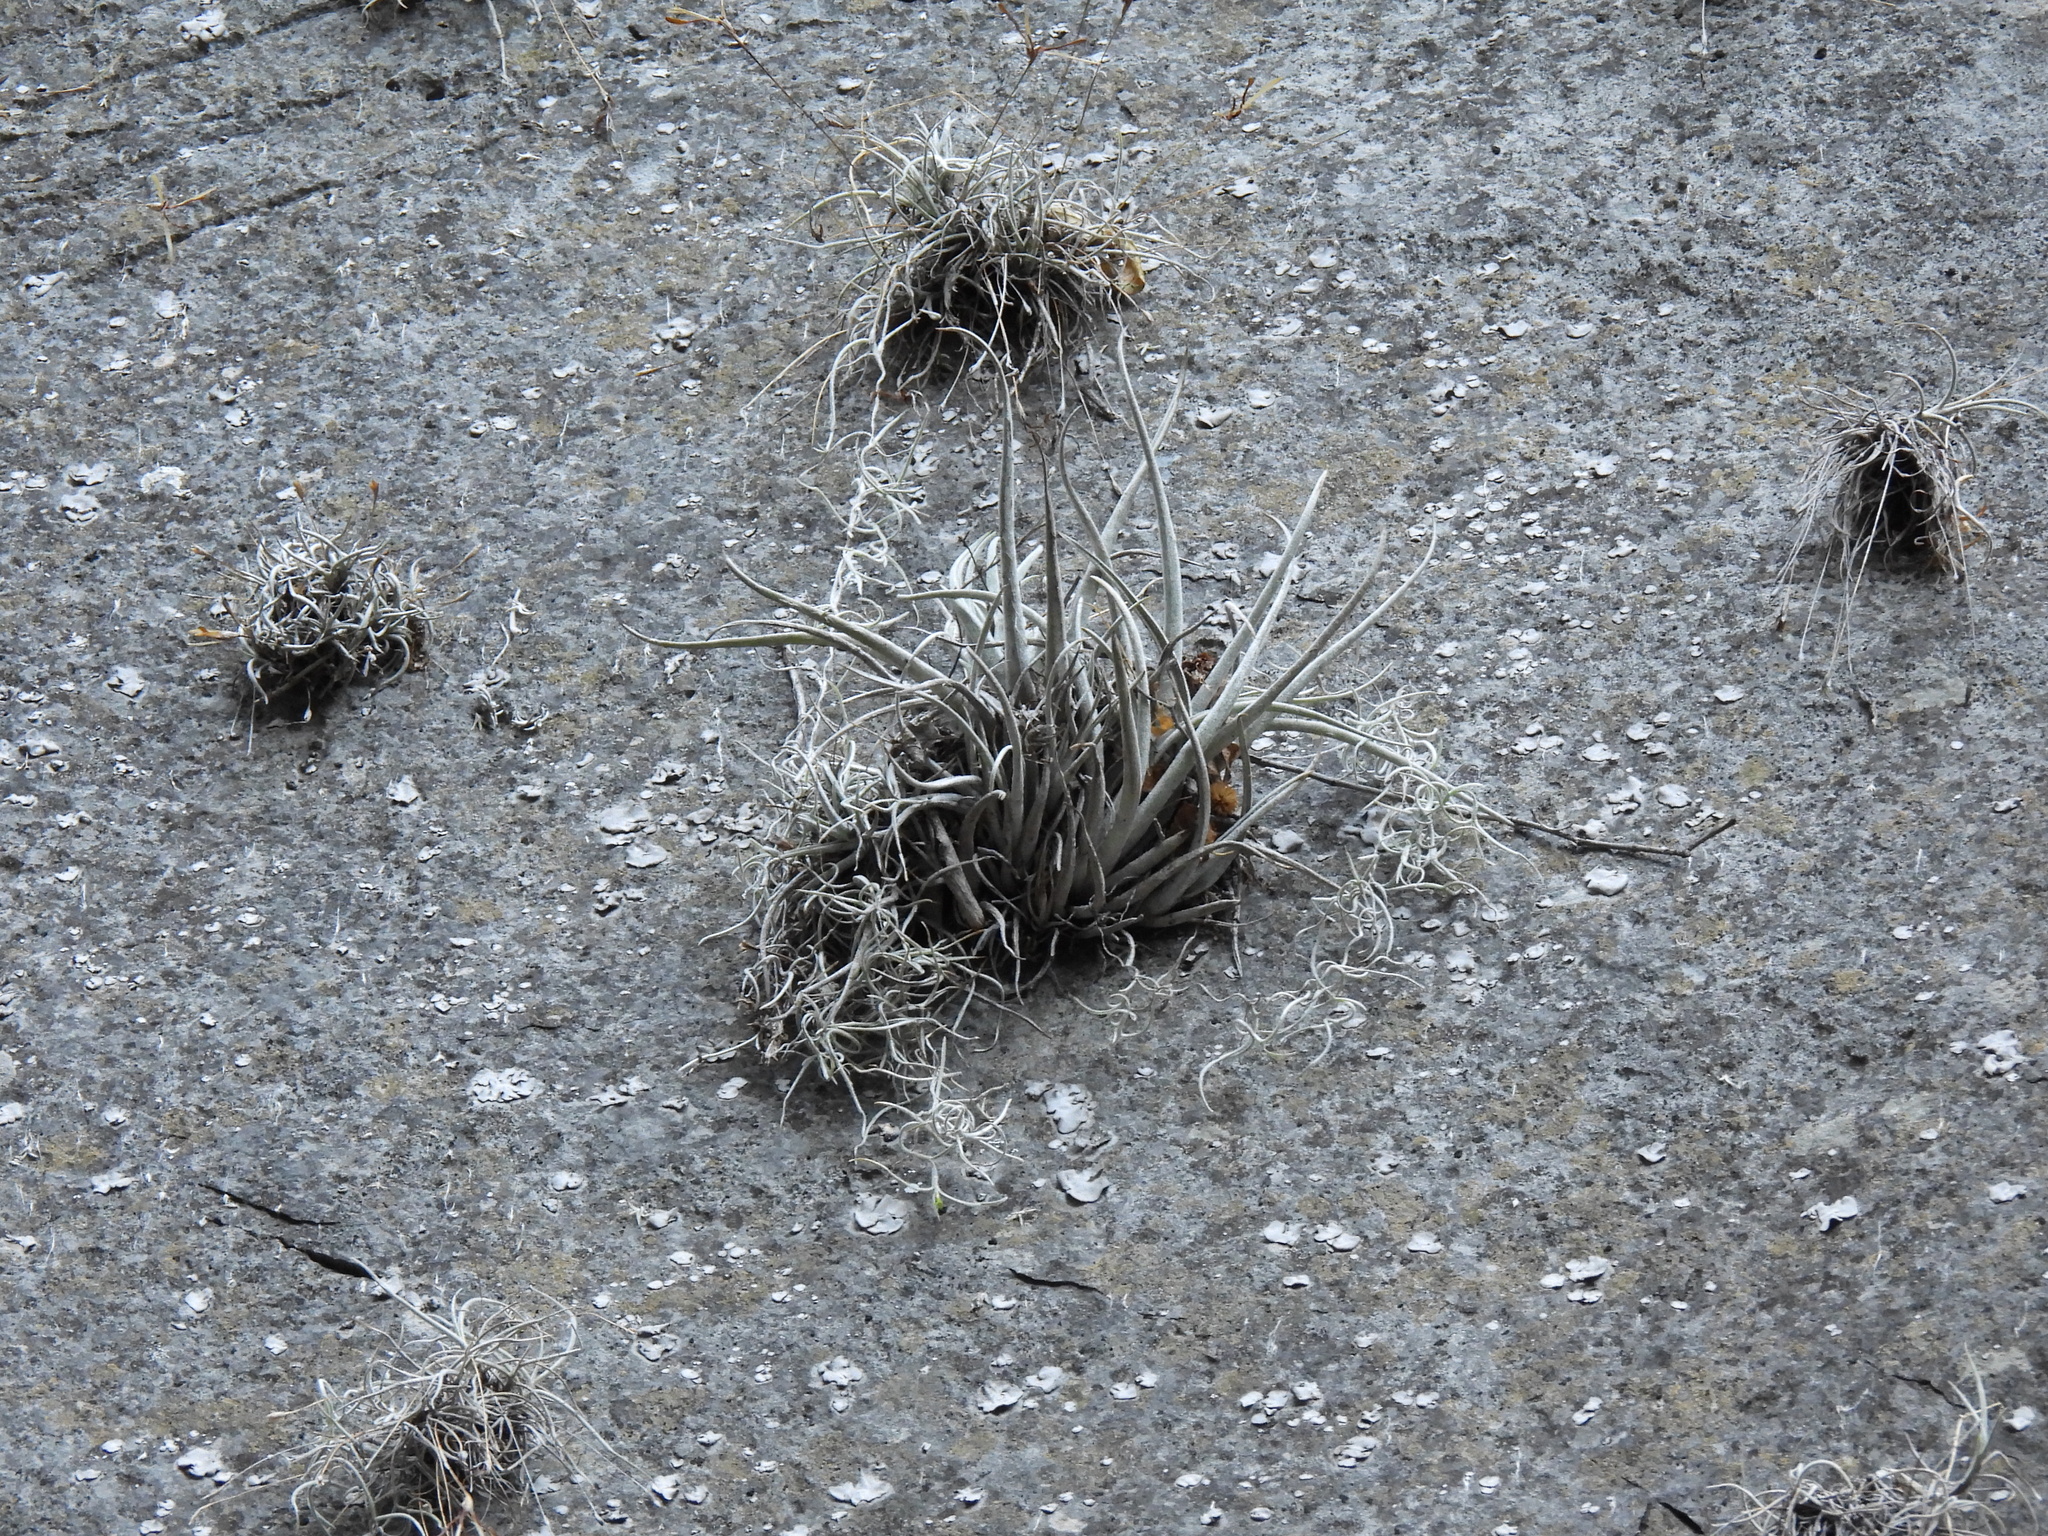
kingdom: Plantae
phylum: Tracheophyta
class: Liliopsida
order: Poales
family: Bromeliaceae
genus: Tillandsia
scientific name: Tillandsia karwinskyana
